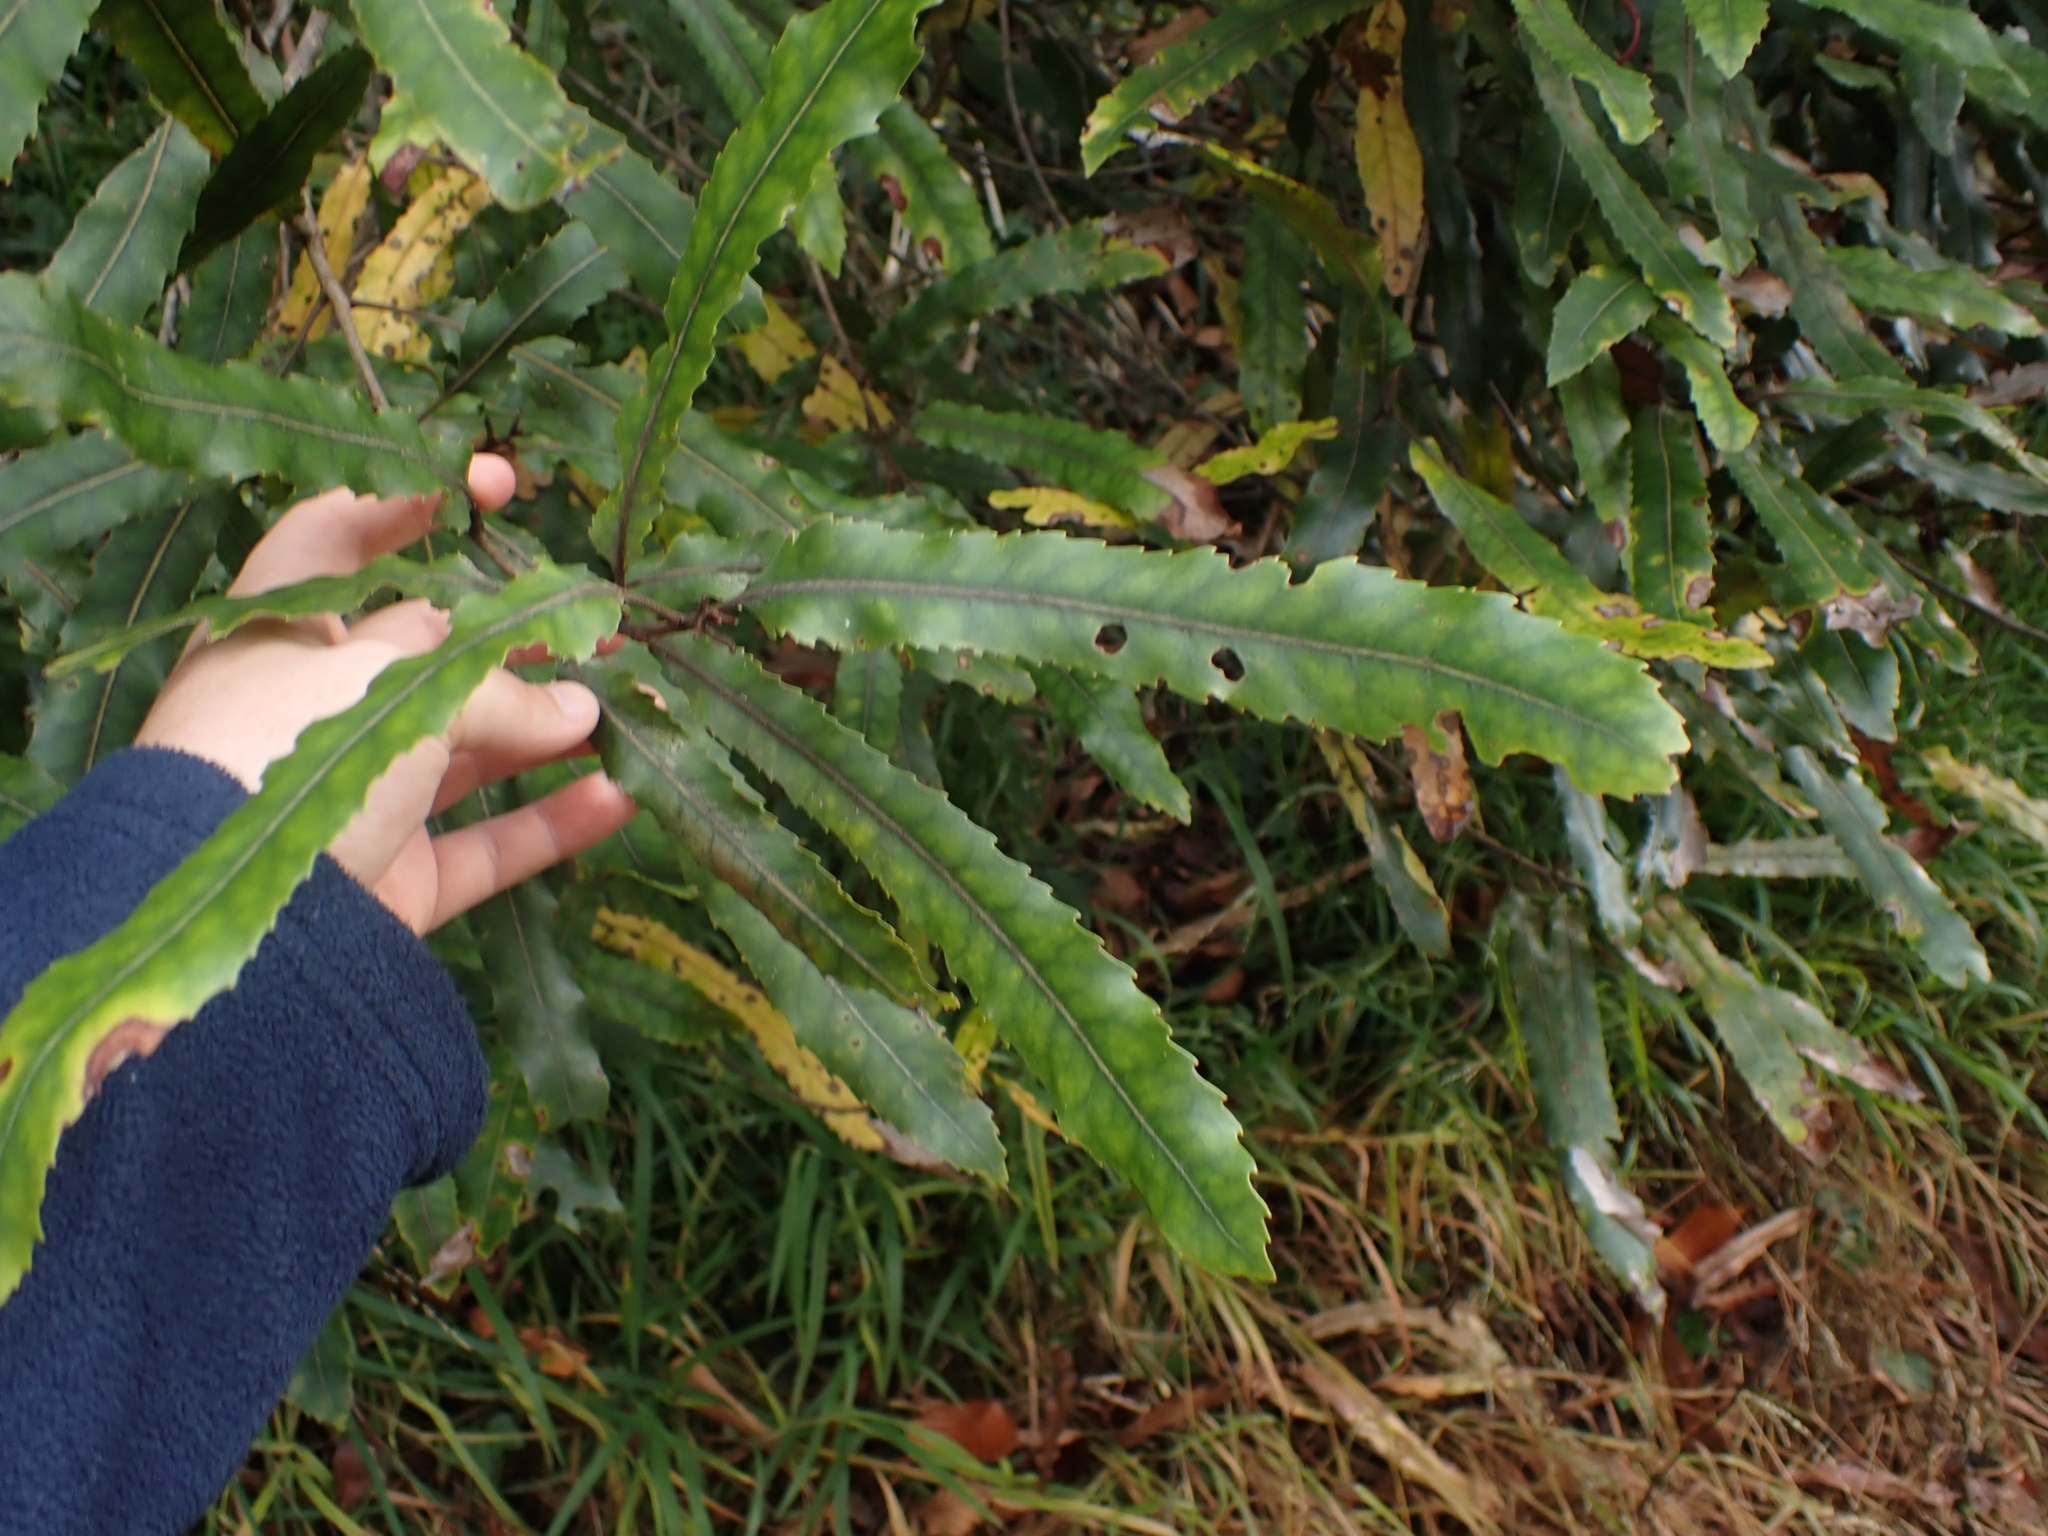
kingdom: Plantae
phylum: Tracheophyta
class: Magnoliopsida
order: Proteales
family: Proteaceae
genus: Knightia
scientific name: Knightia excelsa
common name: New zealand-honeysuckle
